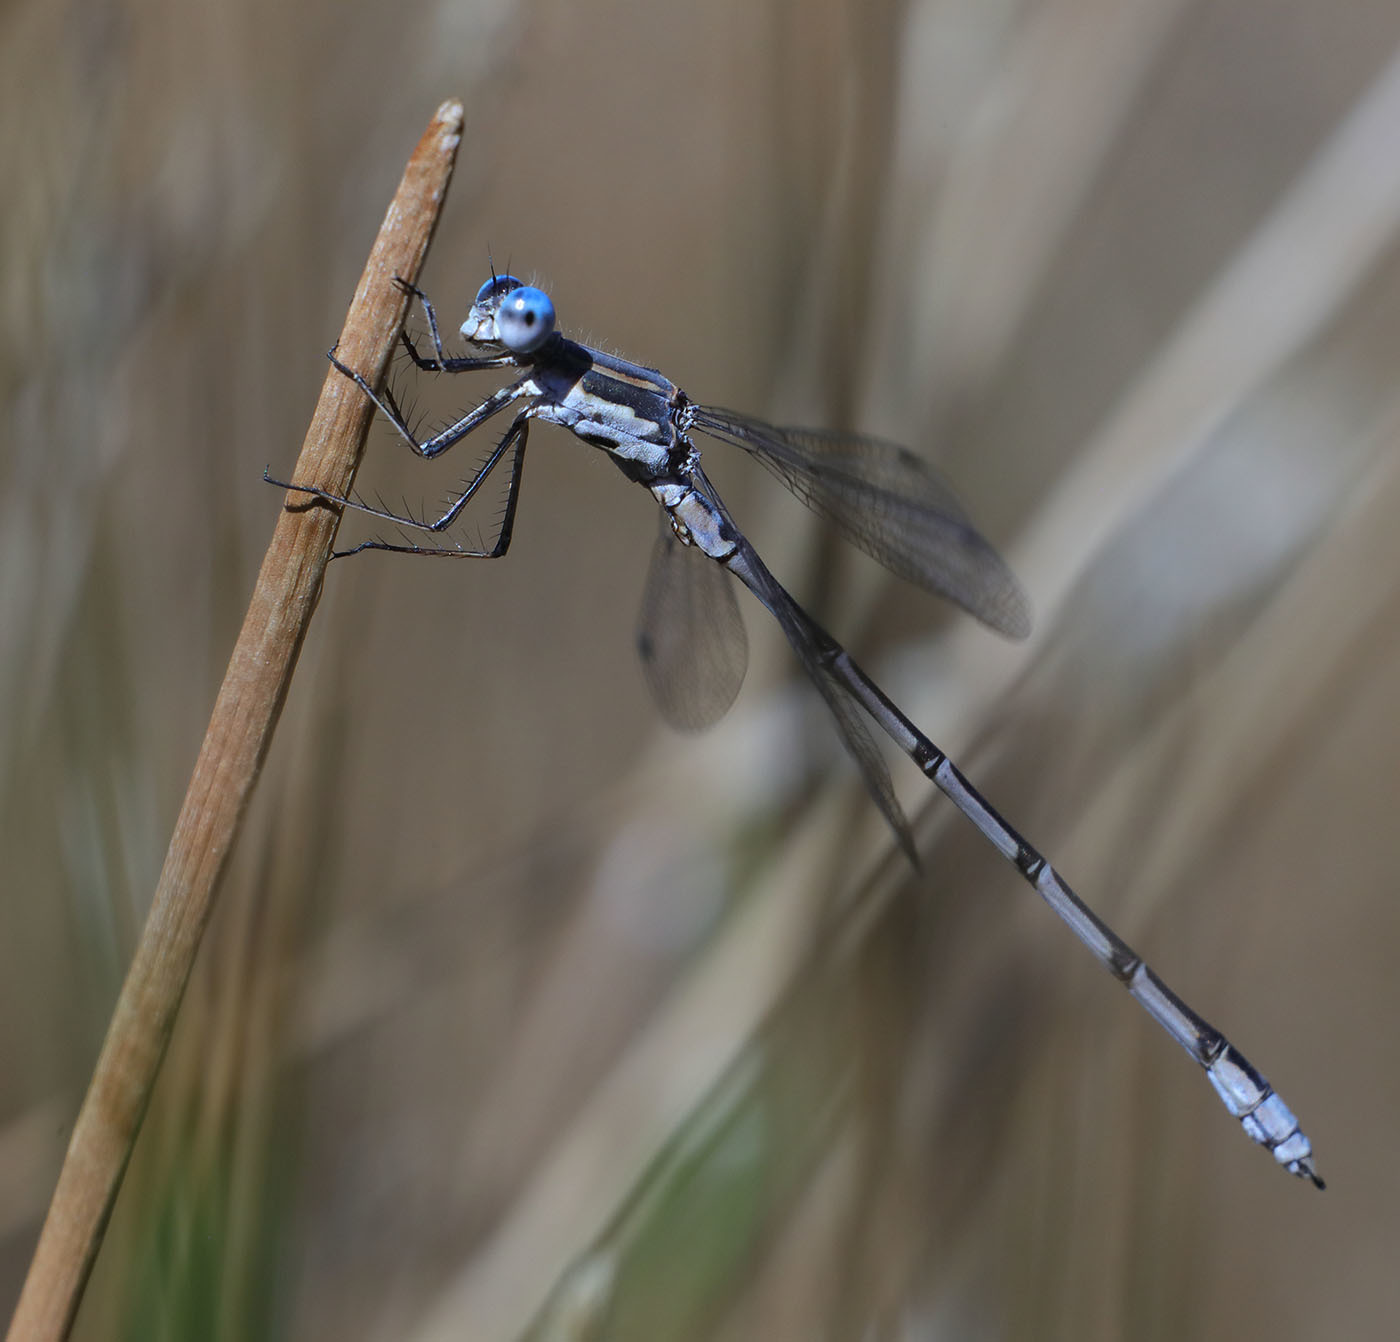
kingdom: Animalia
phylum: Arthropoda
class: Insecta
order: Odonata
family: Lestidae
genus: Lestes
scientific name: Lestes congener
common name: Spotted spreadwing
